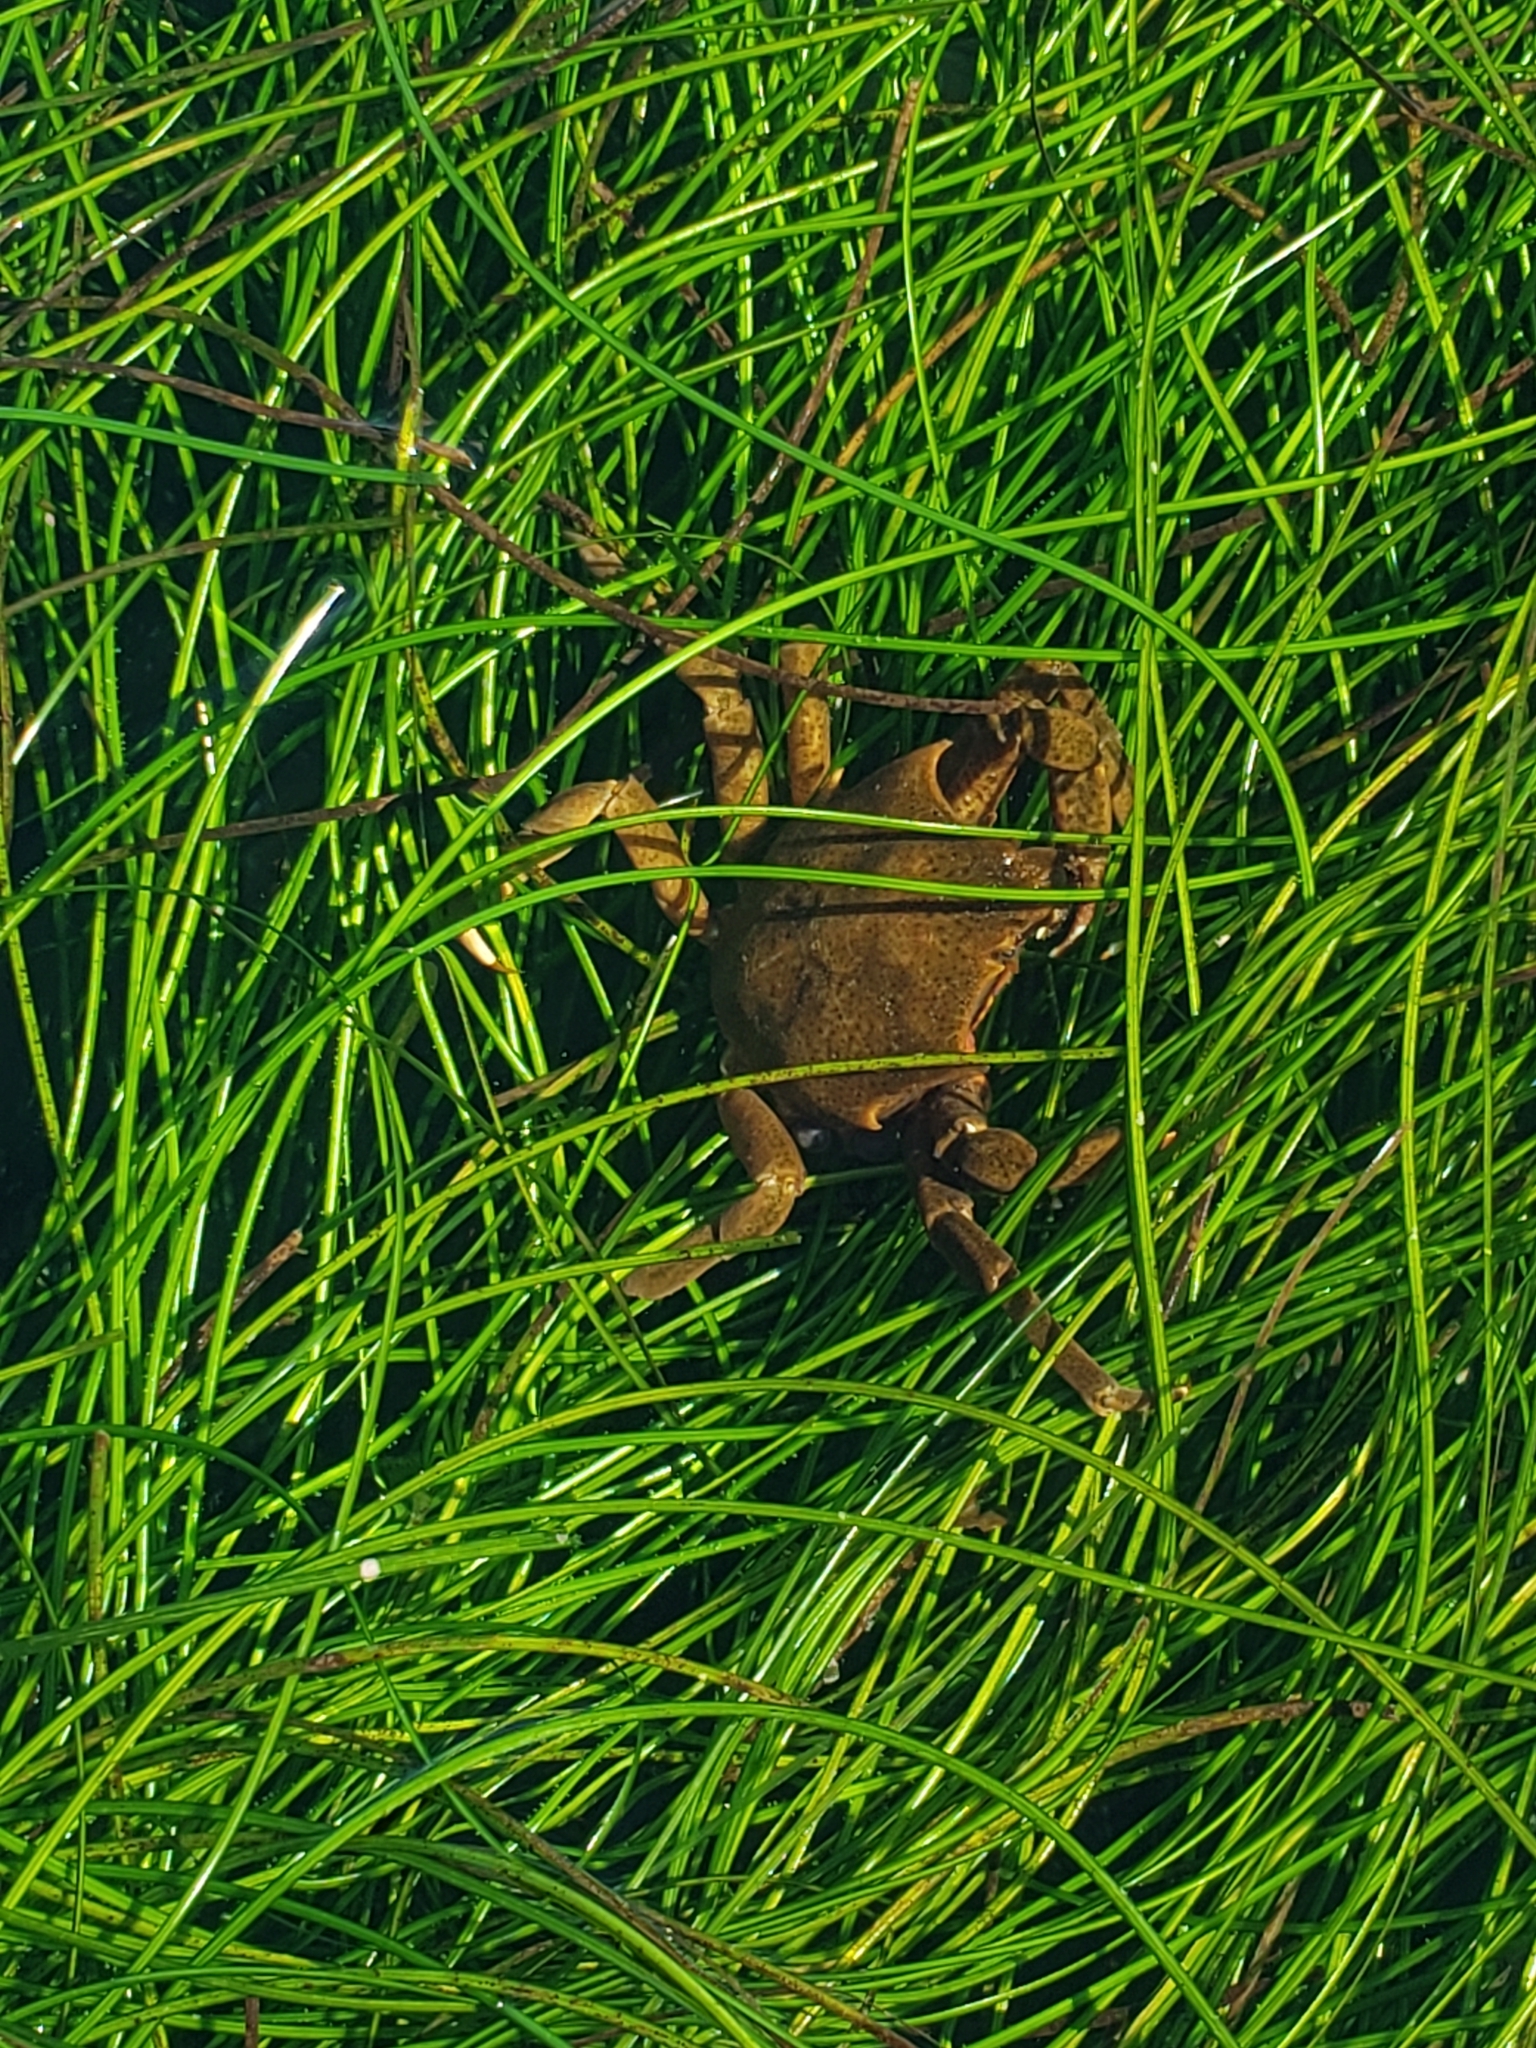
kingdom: Animalia
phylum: Arthropoda
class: Malacostraca
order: Decapoda
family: Epialtidae
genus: Pugettia
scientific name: Pugettia producta
